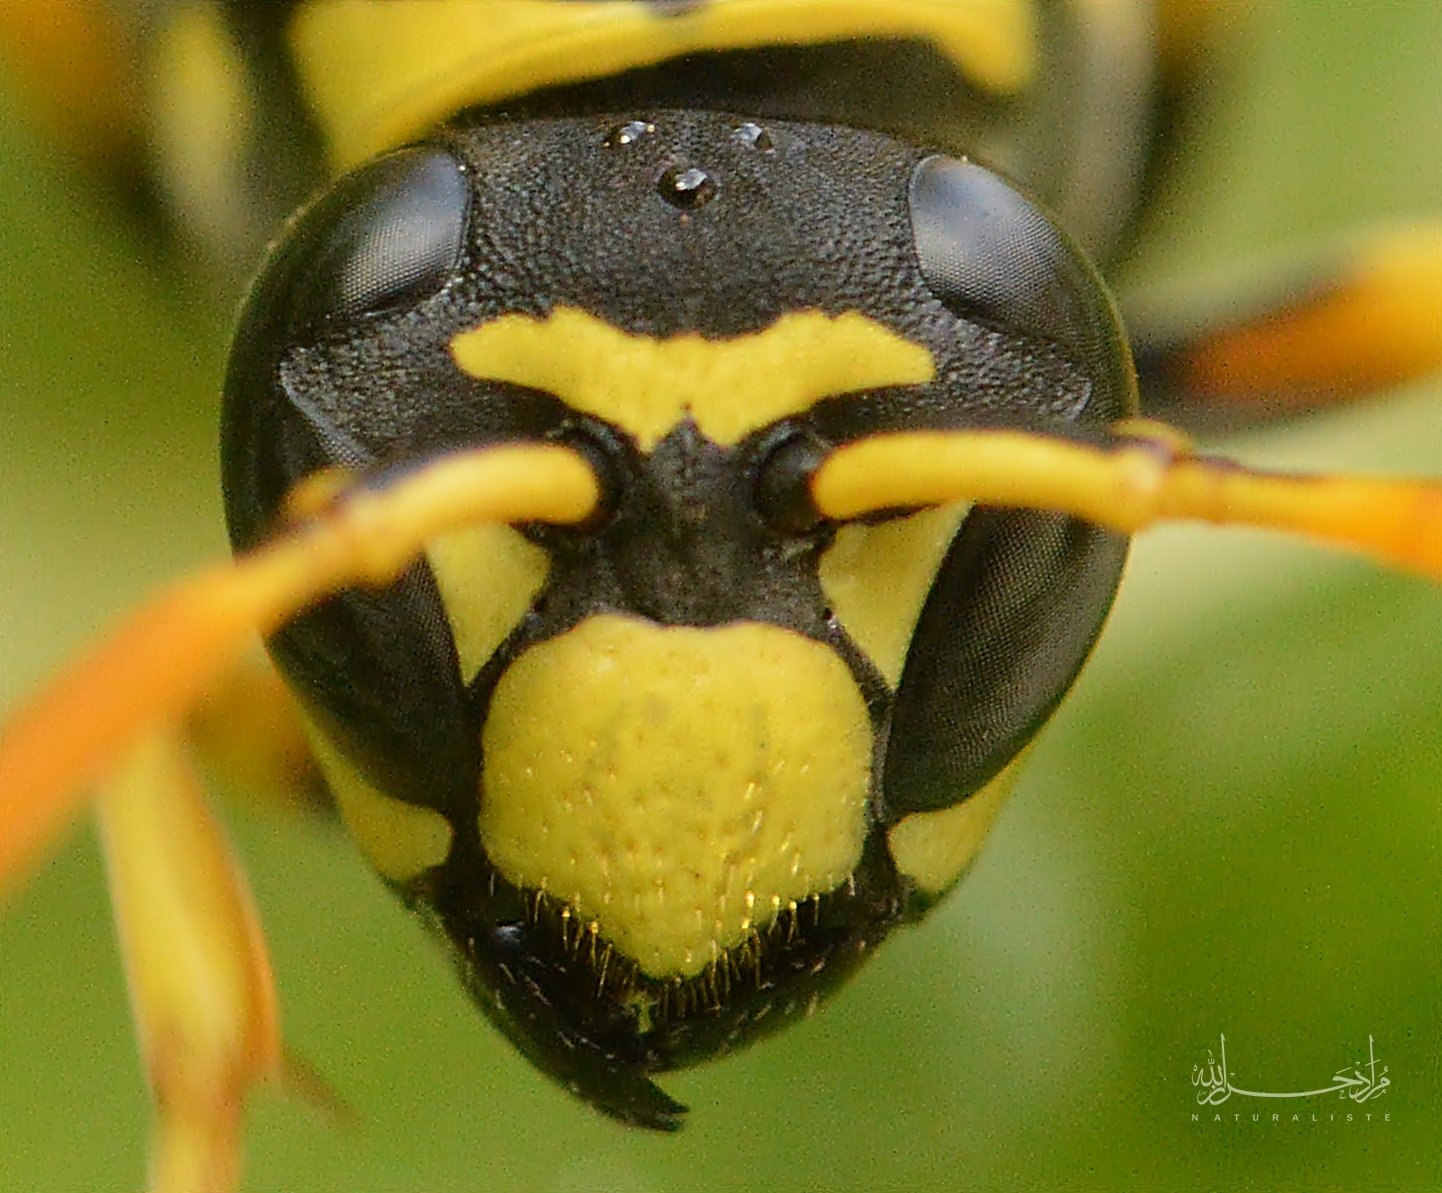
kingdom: Animalia
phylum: Arthropoda
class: Insecta
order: Hymenoptera
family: Eumenidae
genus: Polistes
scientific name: Polistes dominula
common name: Paper wasp
